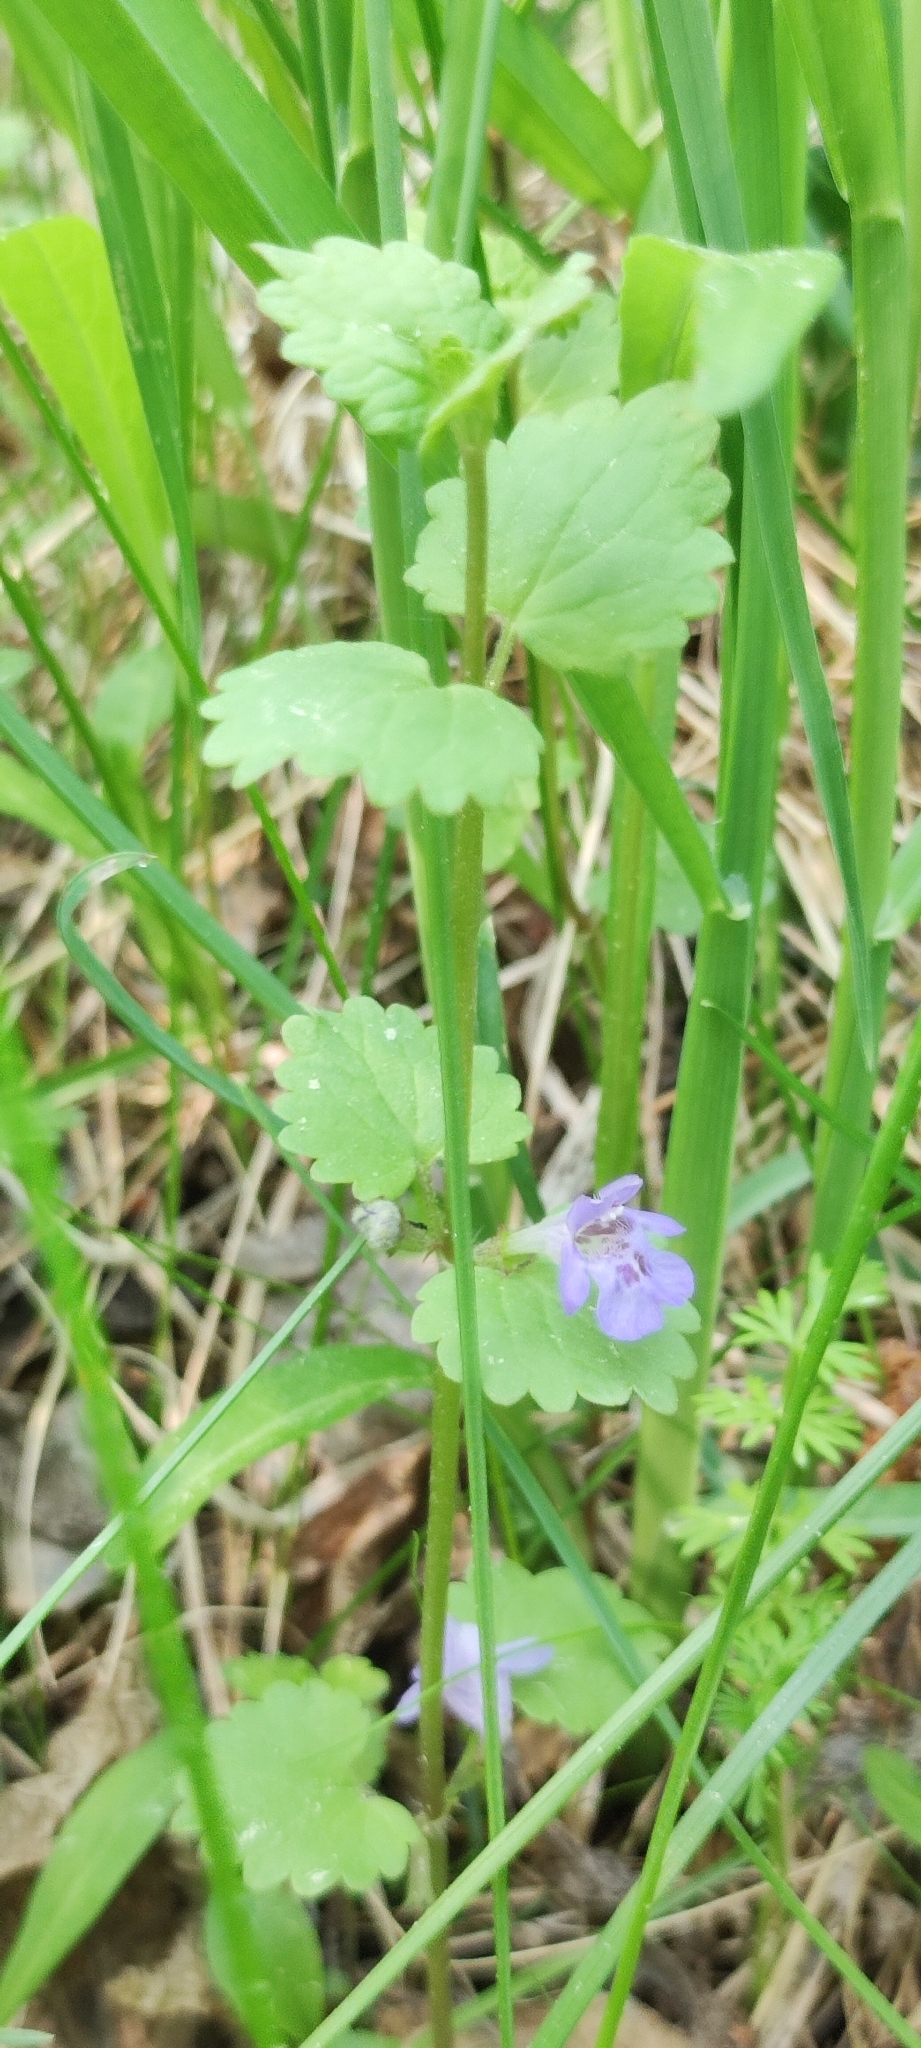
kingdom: Plantae
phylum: Tracheophyta
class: Magnoliopsida
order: Lamiales
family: Lamiaceae
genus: Glechoma
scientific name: Glechoma hederacea
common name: Ground ivy
